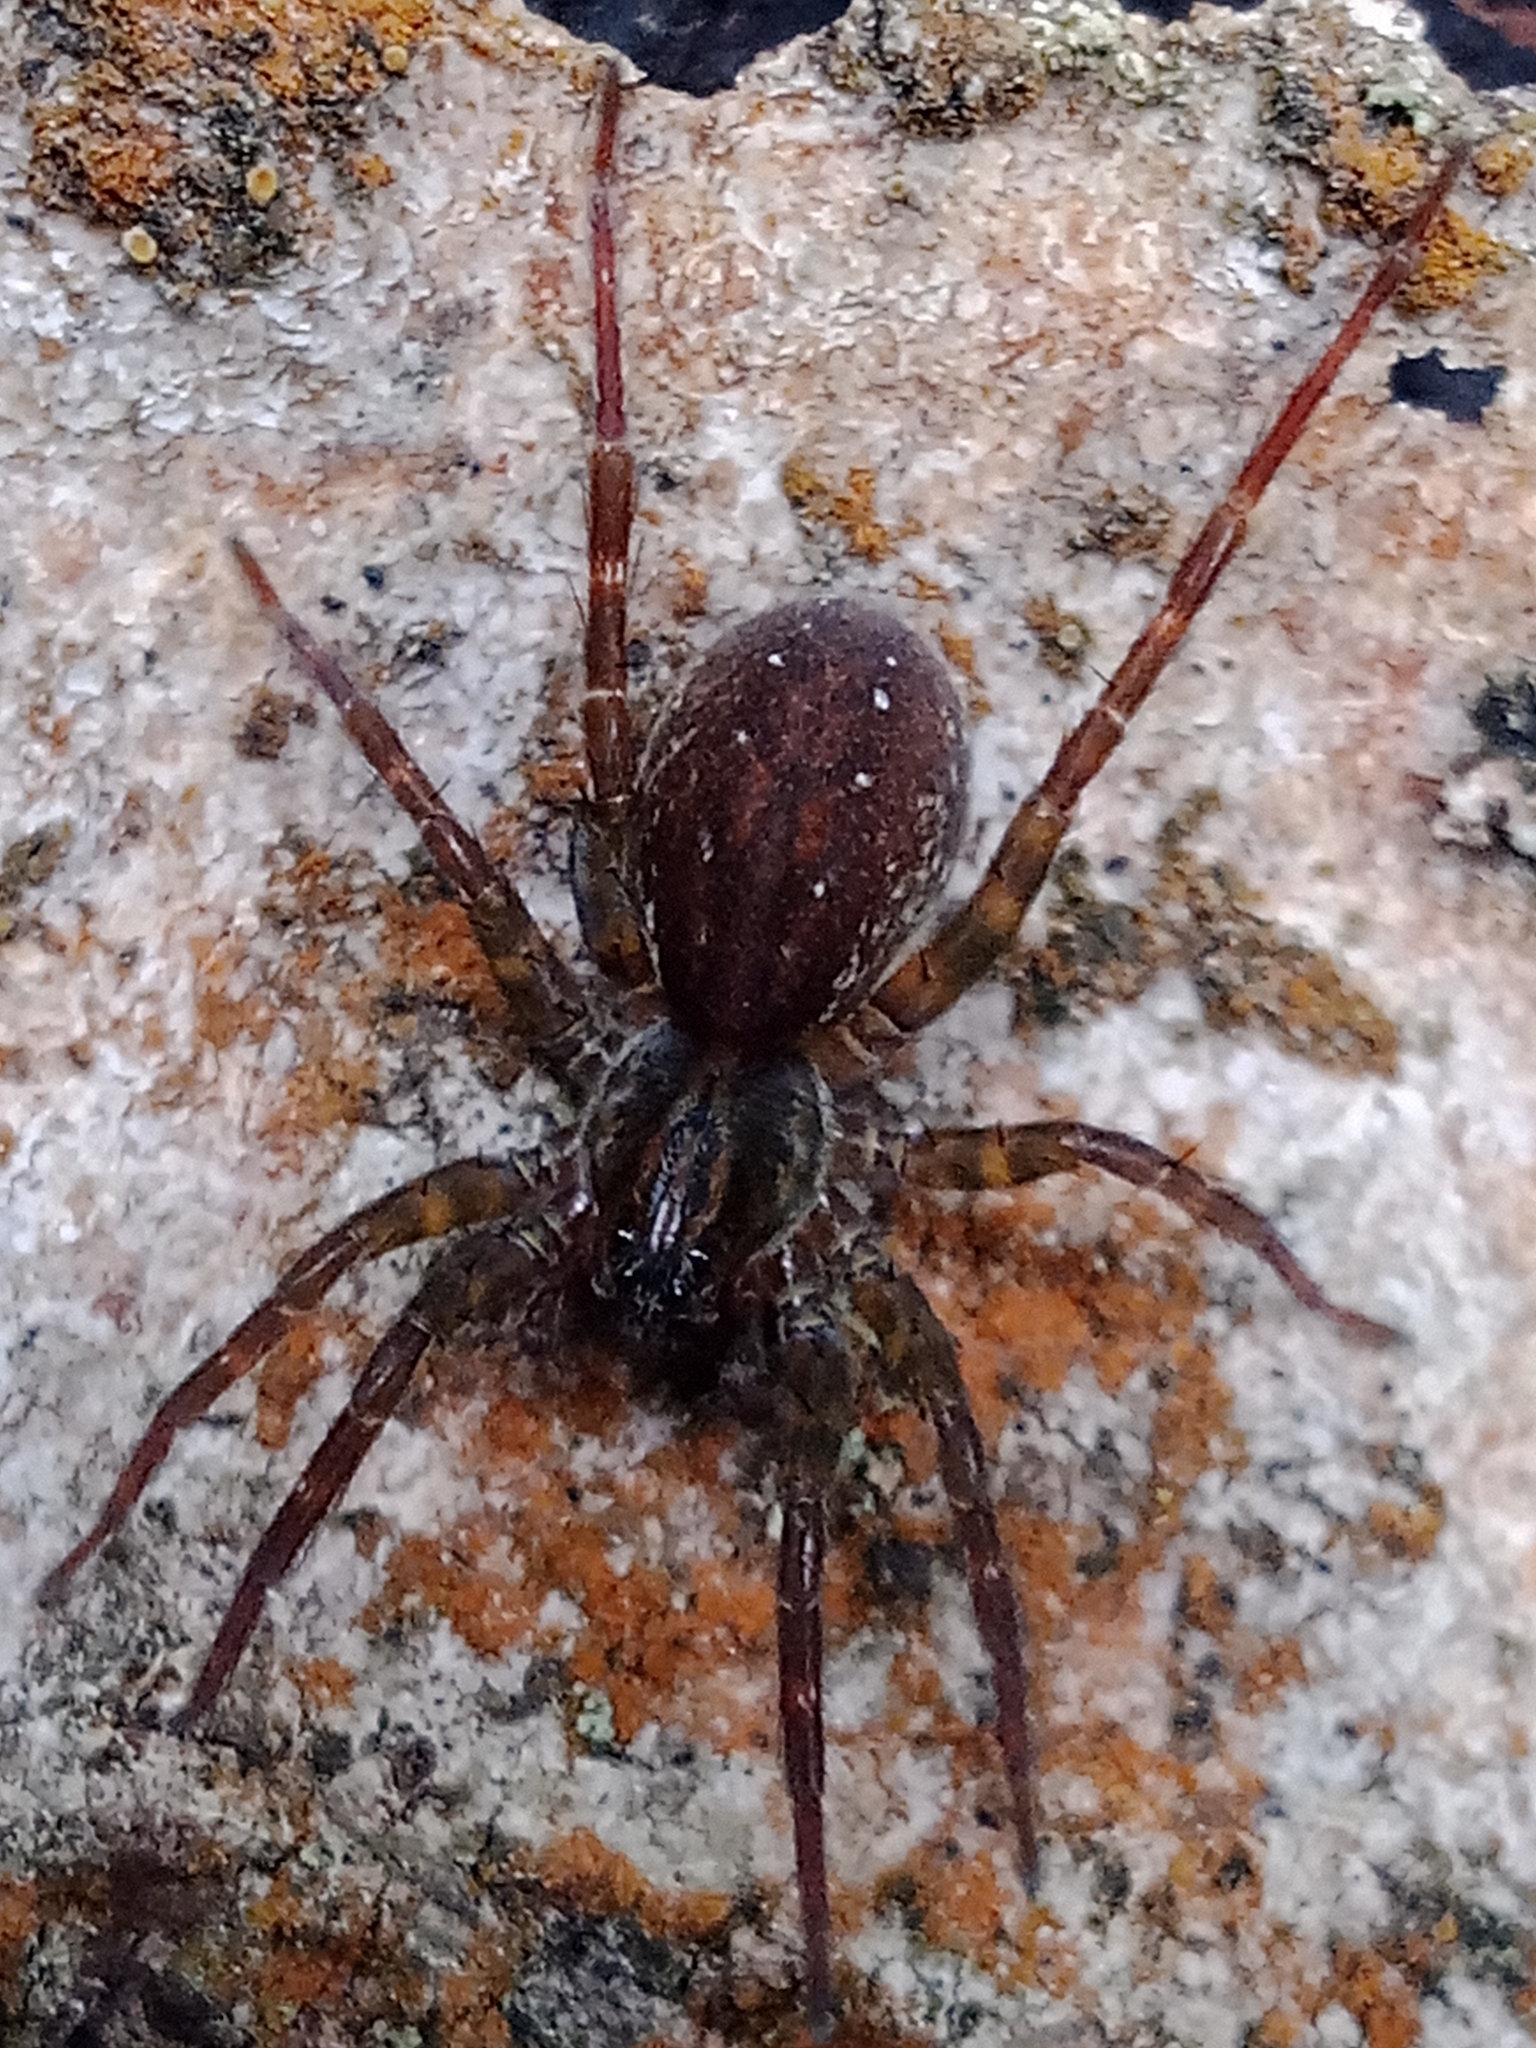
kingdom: Animalia
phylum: Arthropoda
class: Arachnida
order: Araneae
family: Lycosidae
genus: Piratula
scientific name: Piratula hygrophila
